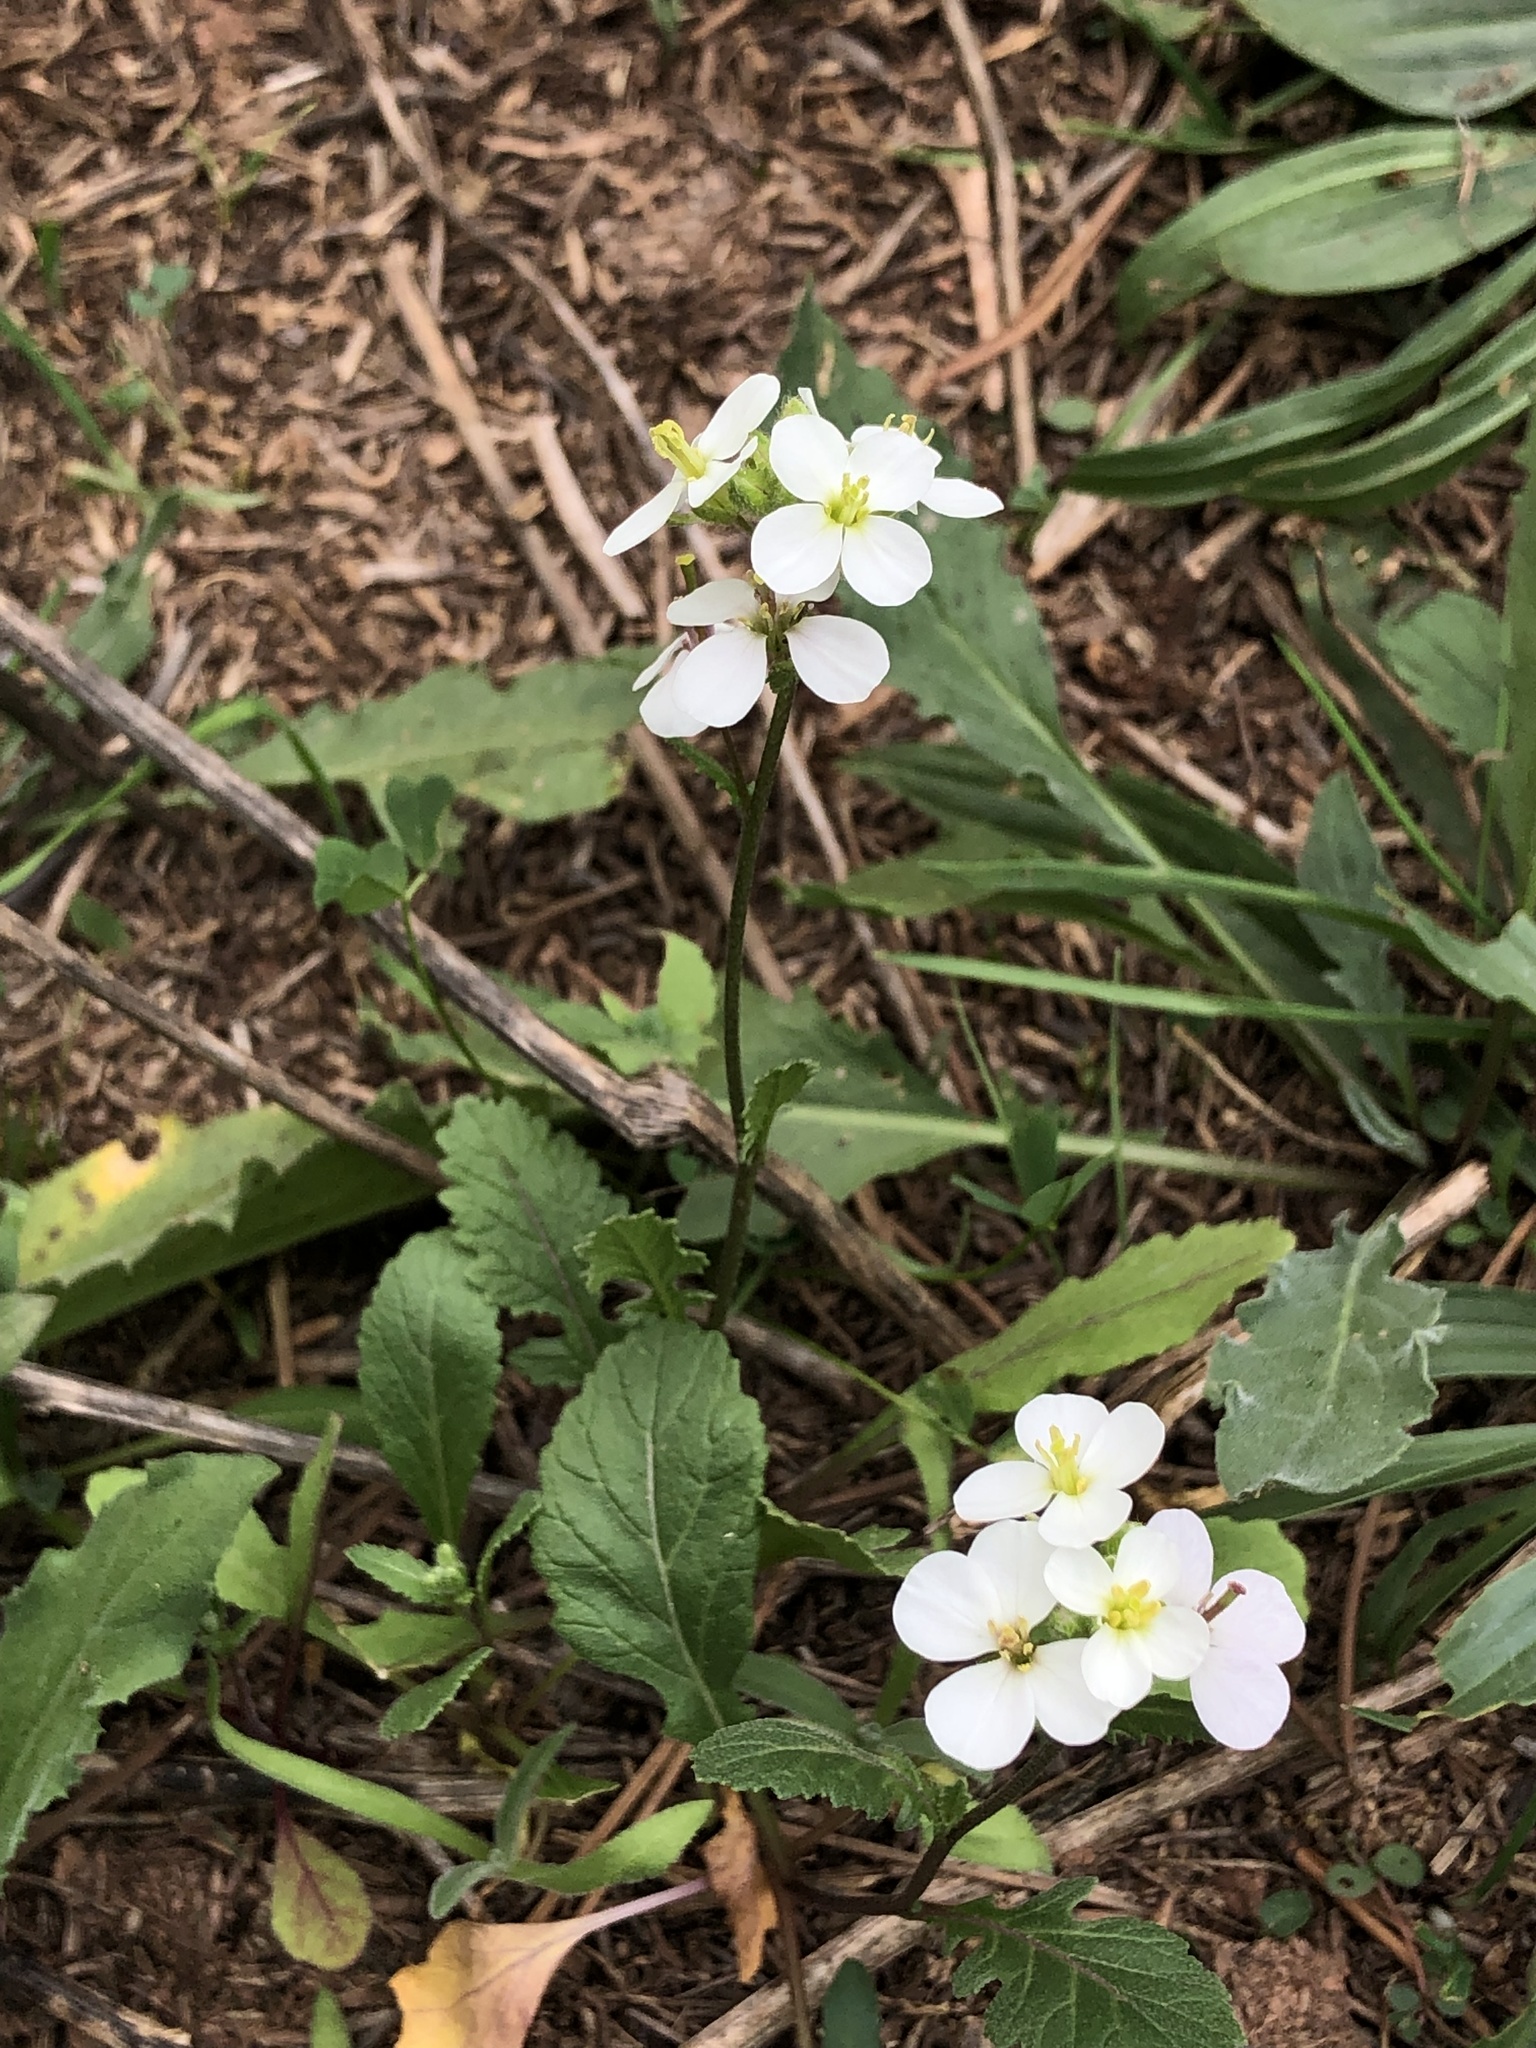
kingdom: Plantae
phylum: Tracheophyta
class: Magnoliopsida
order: Brassicales
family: Brassicaceae
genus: Diplotaxis
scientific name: Diplotaxis erucoides
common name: White rocket
